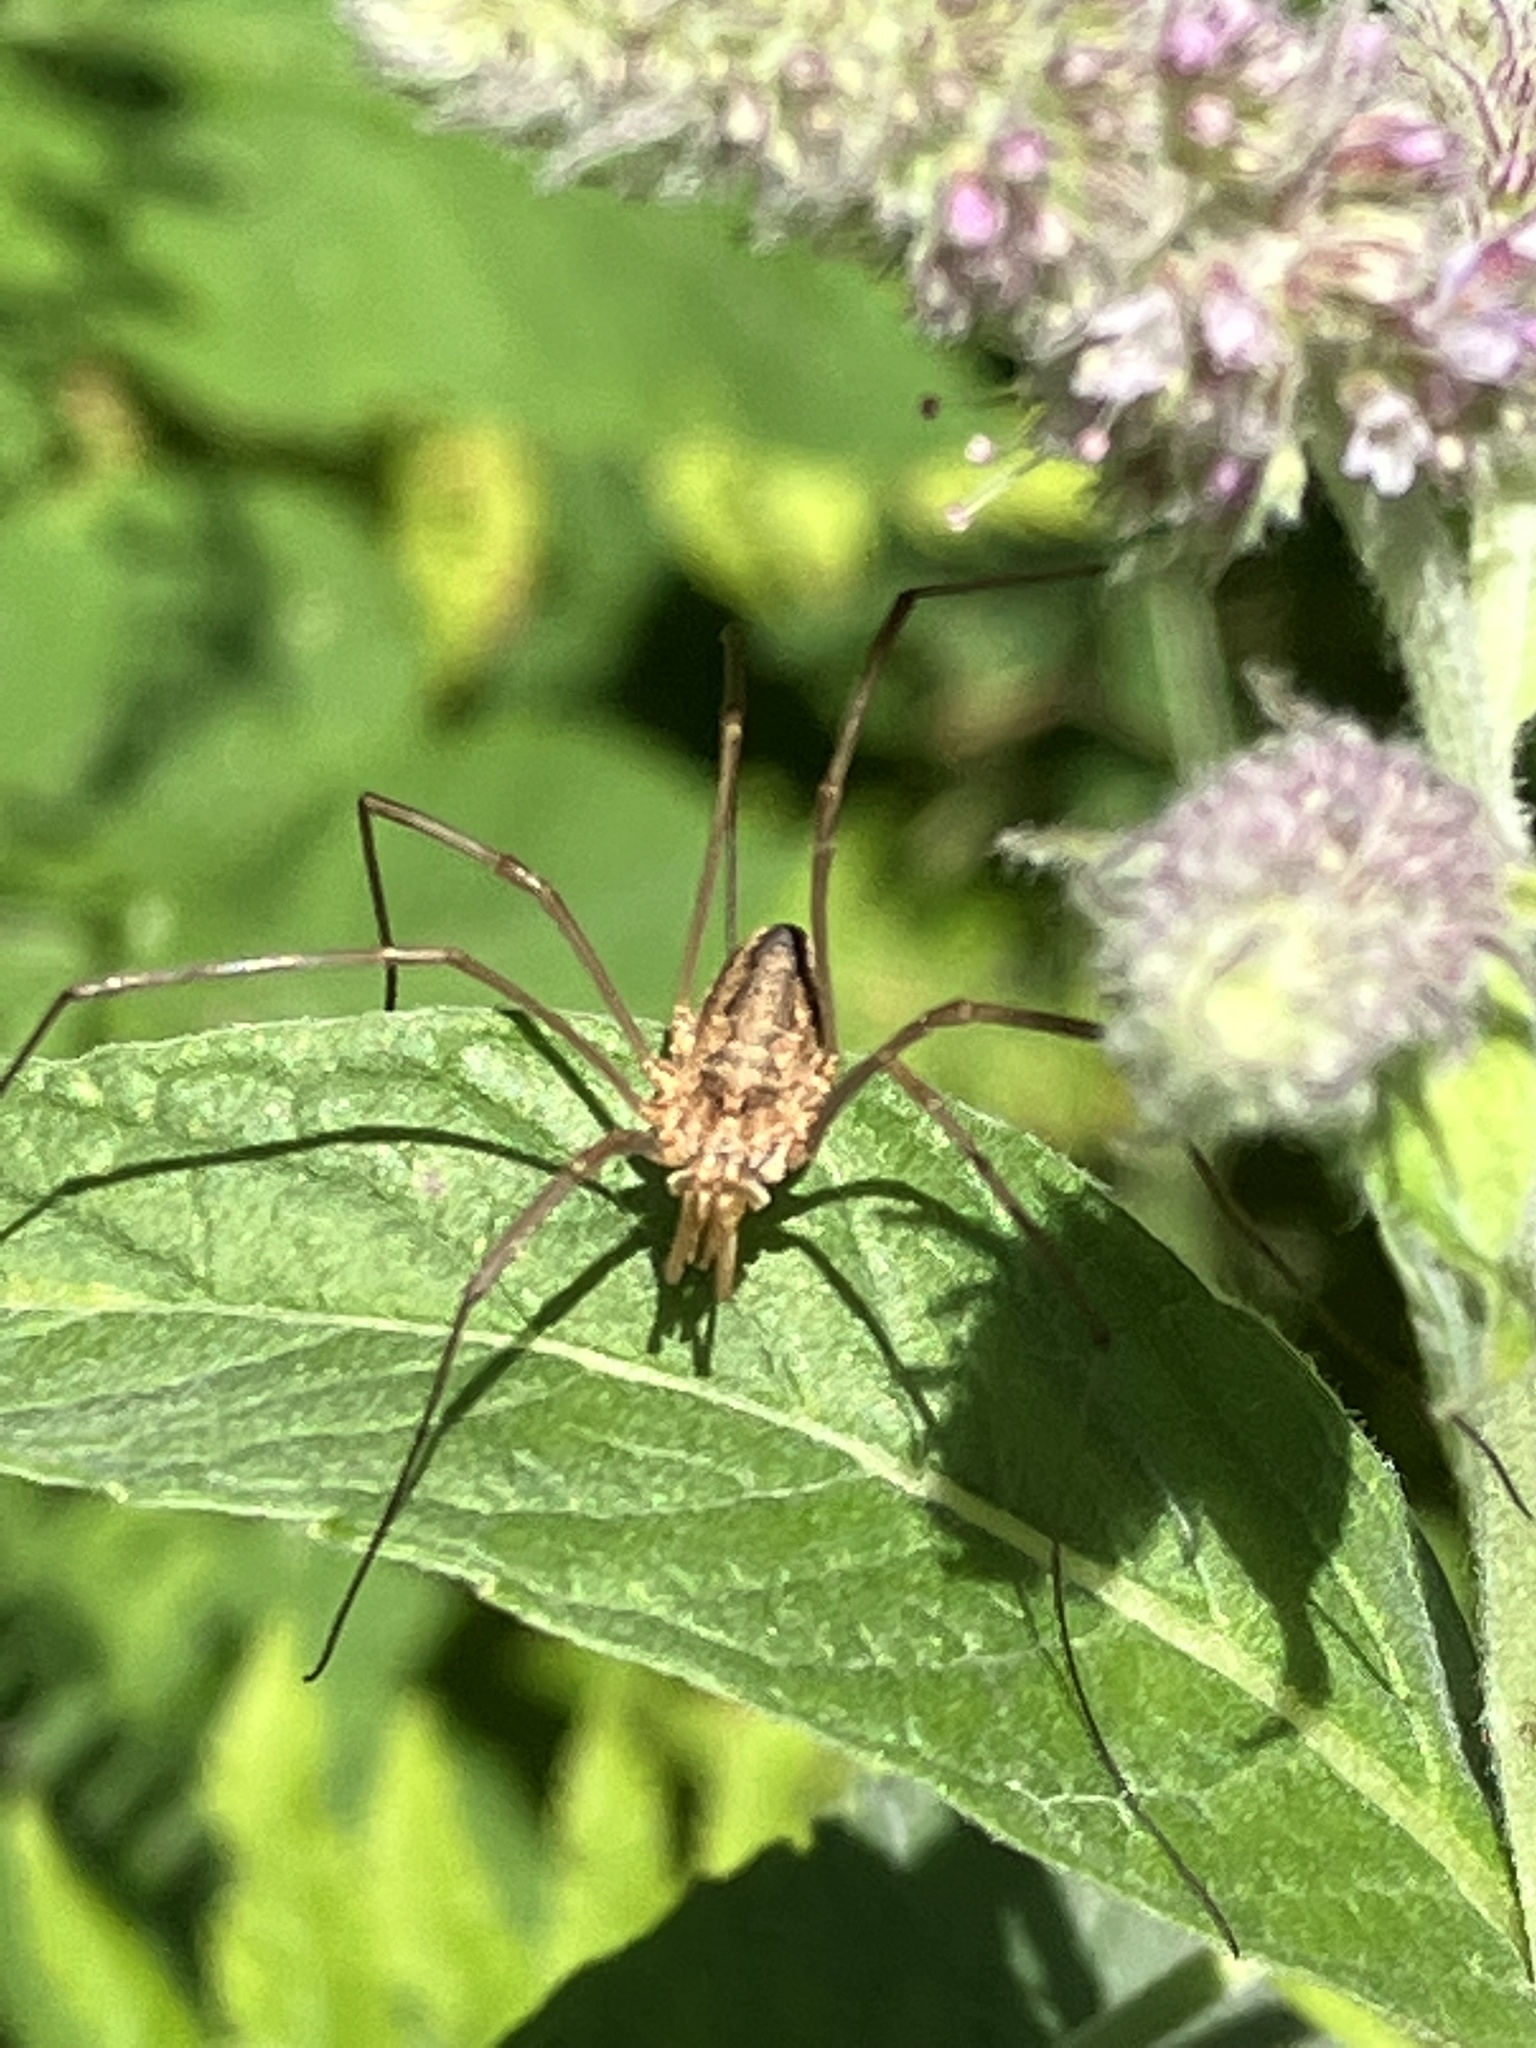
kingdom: Animalia
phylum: Arthropoda
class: Arachnida
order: Opiliones
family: Phalangiidae
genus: Phalangium
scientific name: Phalangium opilio
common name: Daddy longleg
